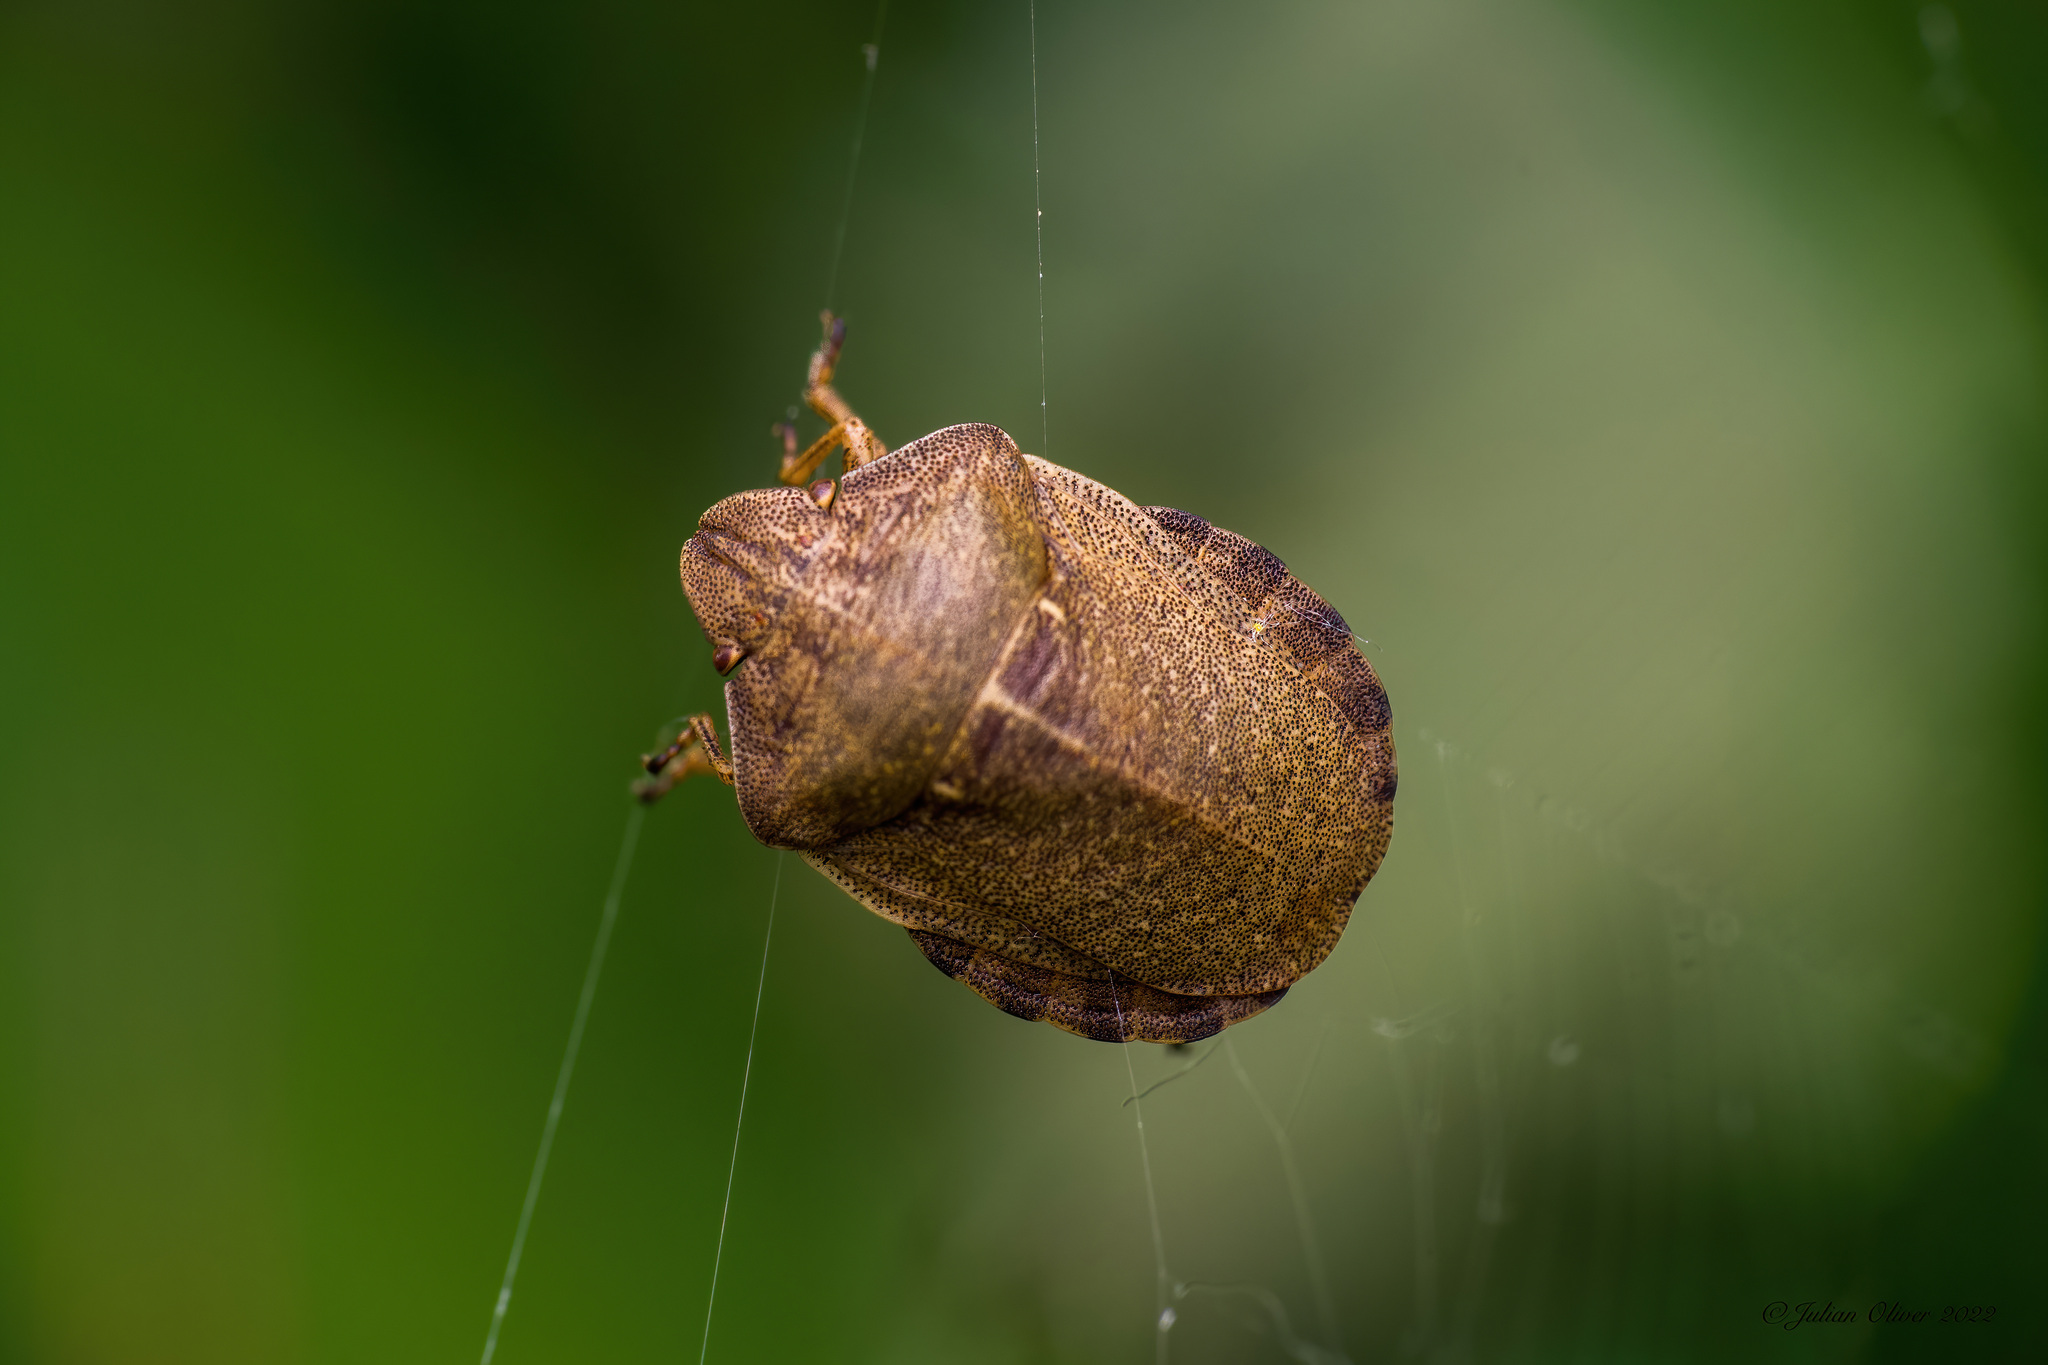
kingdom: Animalia
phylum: Arthropoda
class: Insecta
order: Hemiptera
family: Scutelleridae
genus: Eurygaster
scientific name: Eurygaster testudinaria
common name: Tortoise bug
